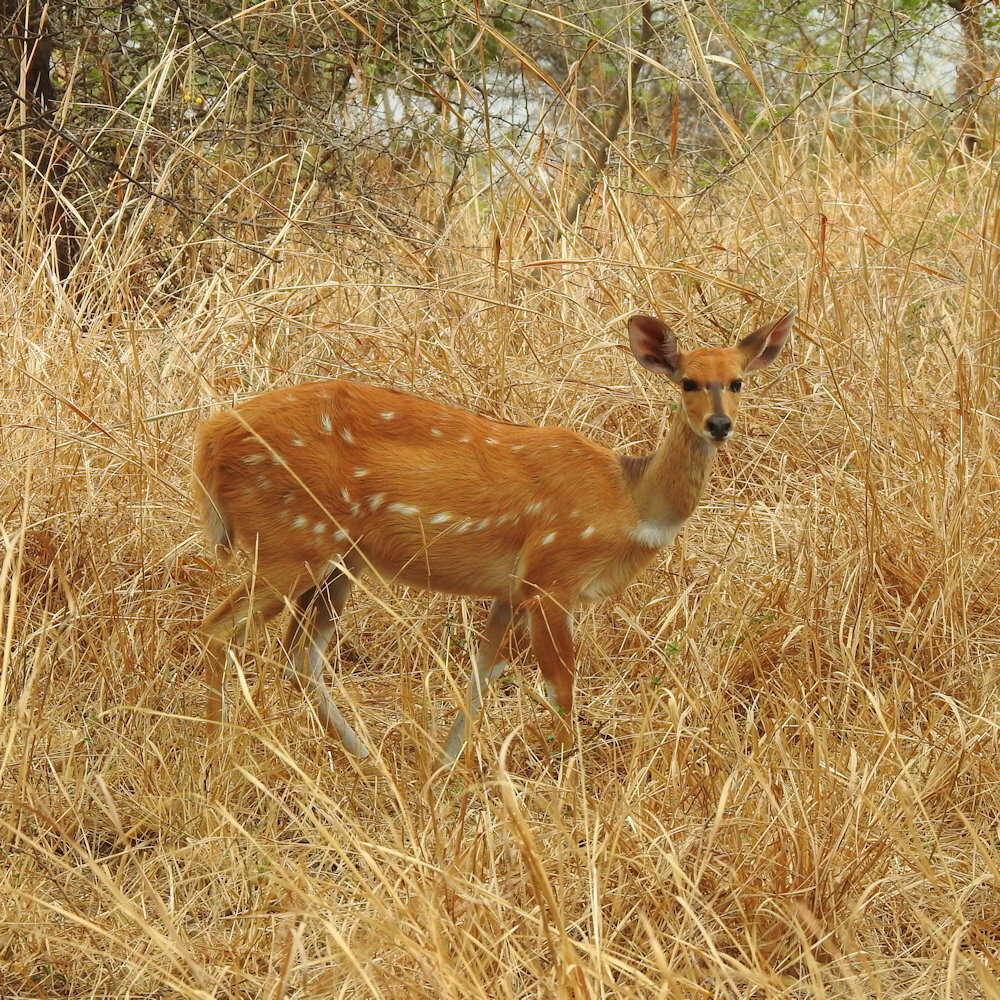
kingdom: Animalia
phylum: Chordata
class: Mammalia
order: Artiodactyla
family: Bovidae
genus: Tragelaphus
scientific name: Tragelaphus scriptus
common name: Bushbuck
